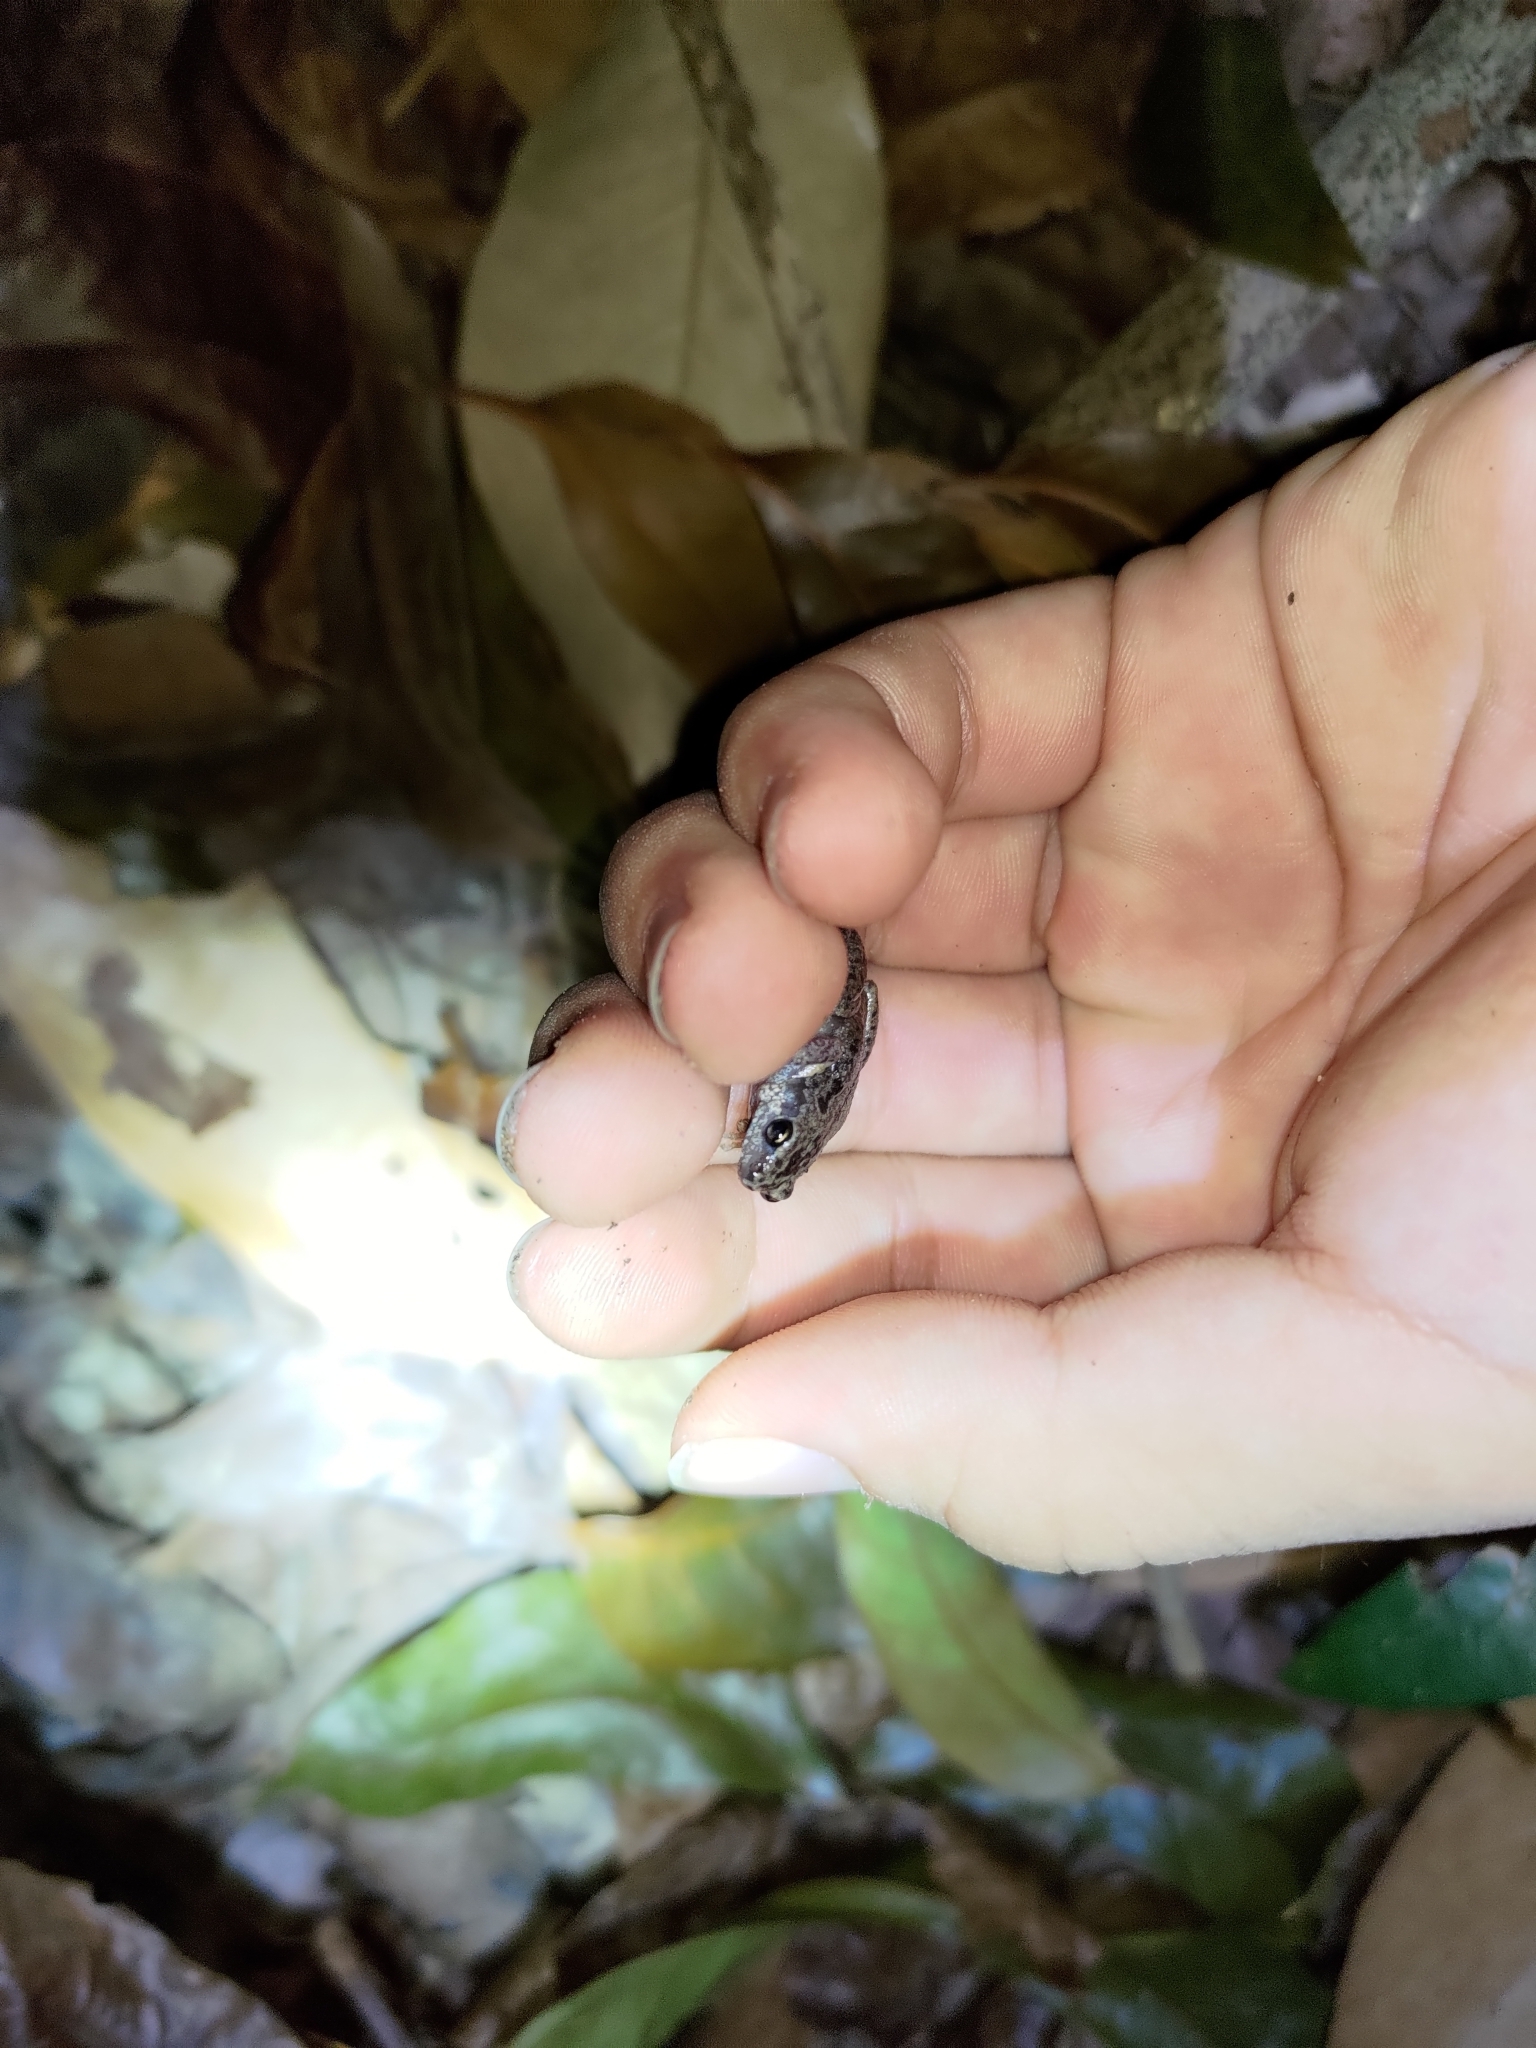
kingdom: Animalia
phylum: Chordata
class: Amphibia
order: Anura
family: Microhylidae
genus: Micryletta
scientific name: Micryletta steinegeri
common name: Stejneger's paddy frog
